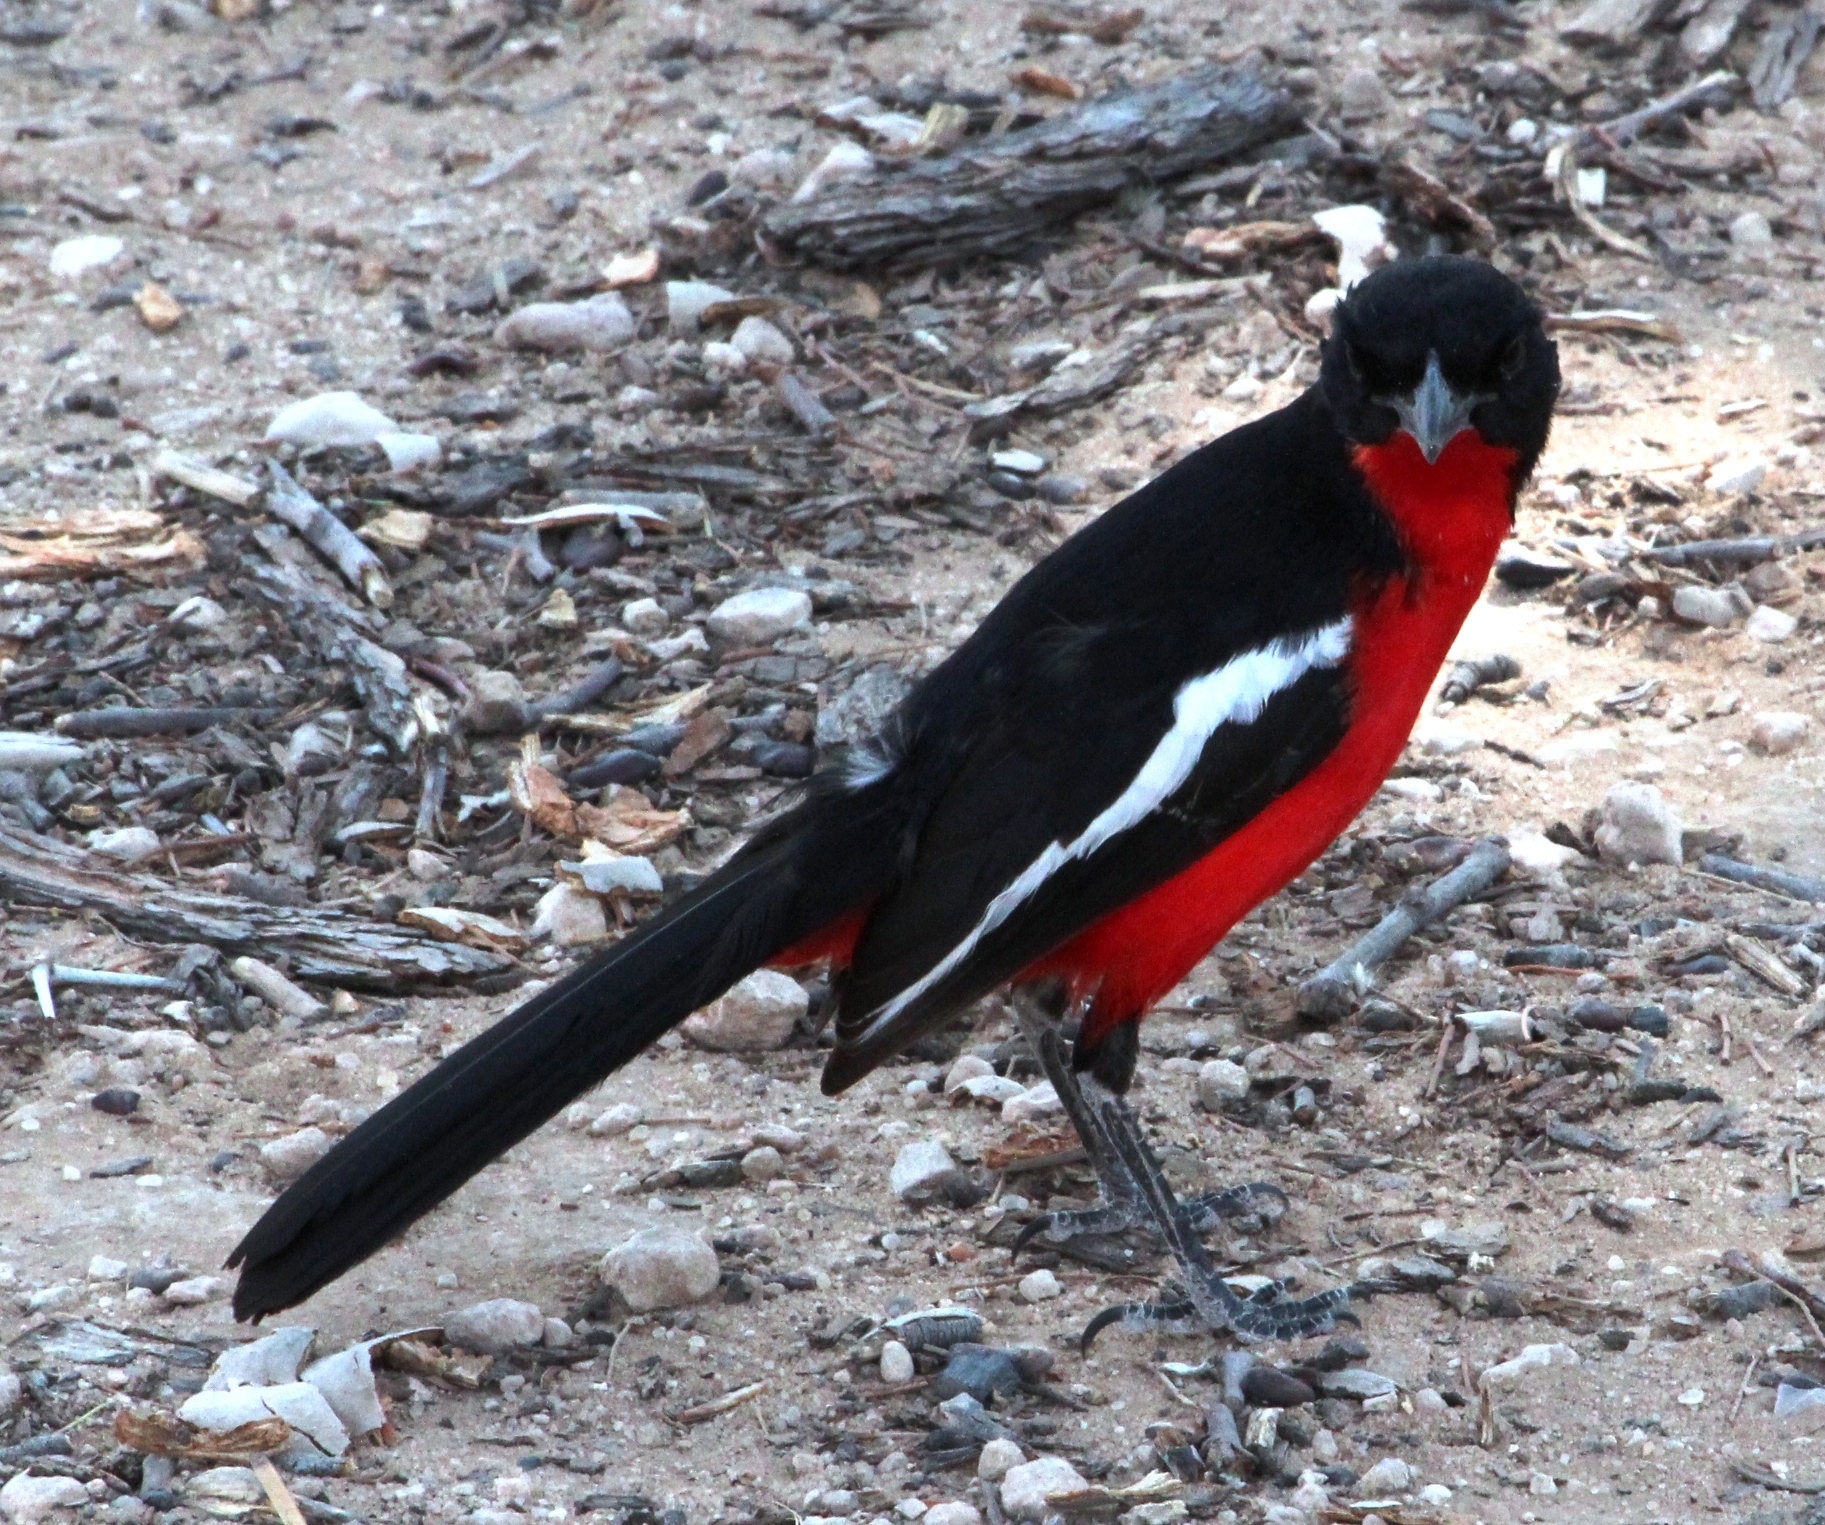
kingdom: Animalia
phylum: Chordata
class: Aves
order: Passeriformes
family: Malaconotidae
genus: Laniarius
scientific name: Laniarius atrococcineus
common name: Crimson-breasted shrike
